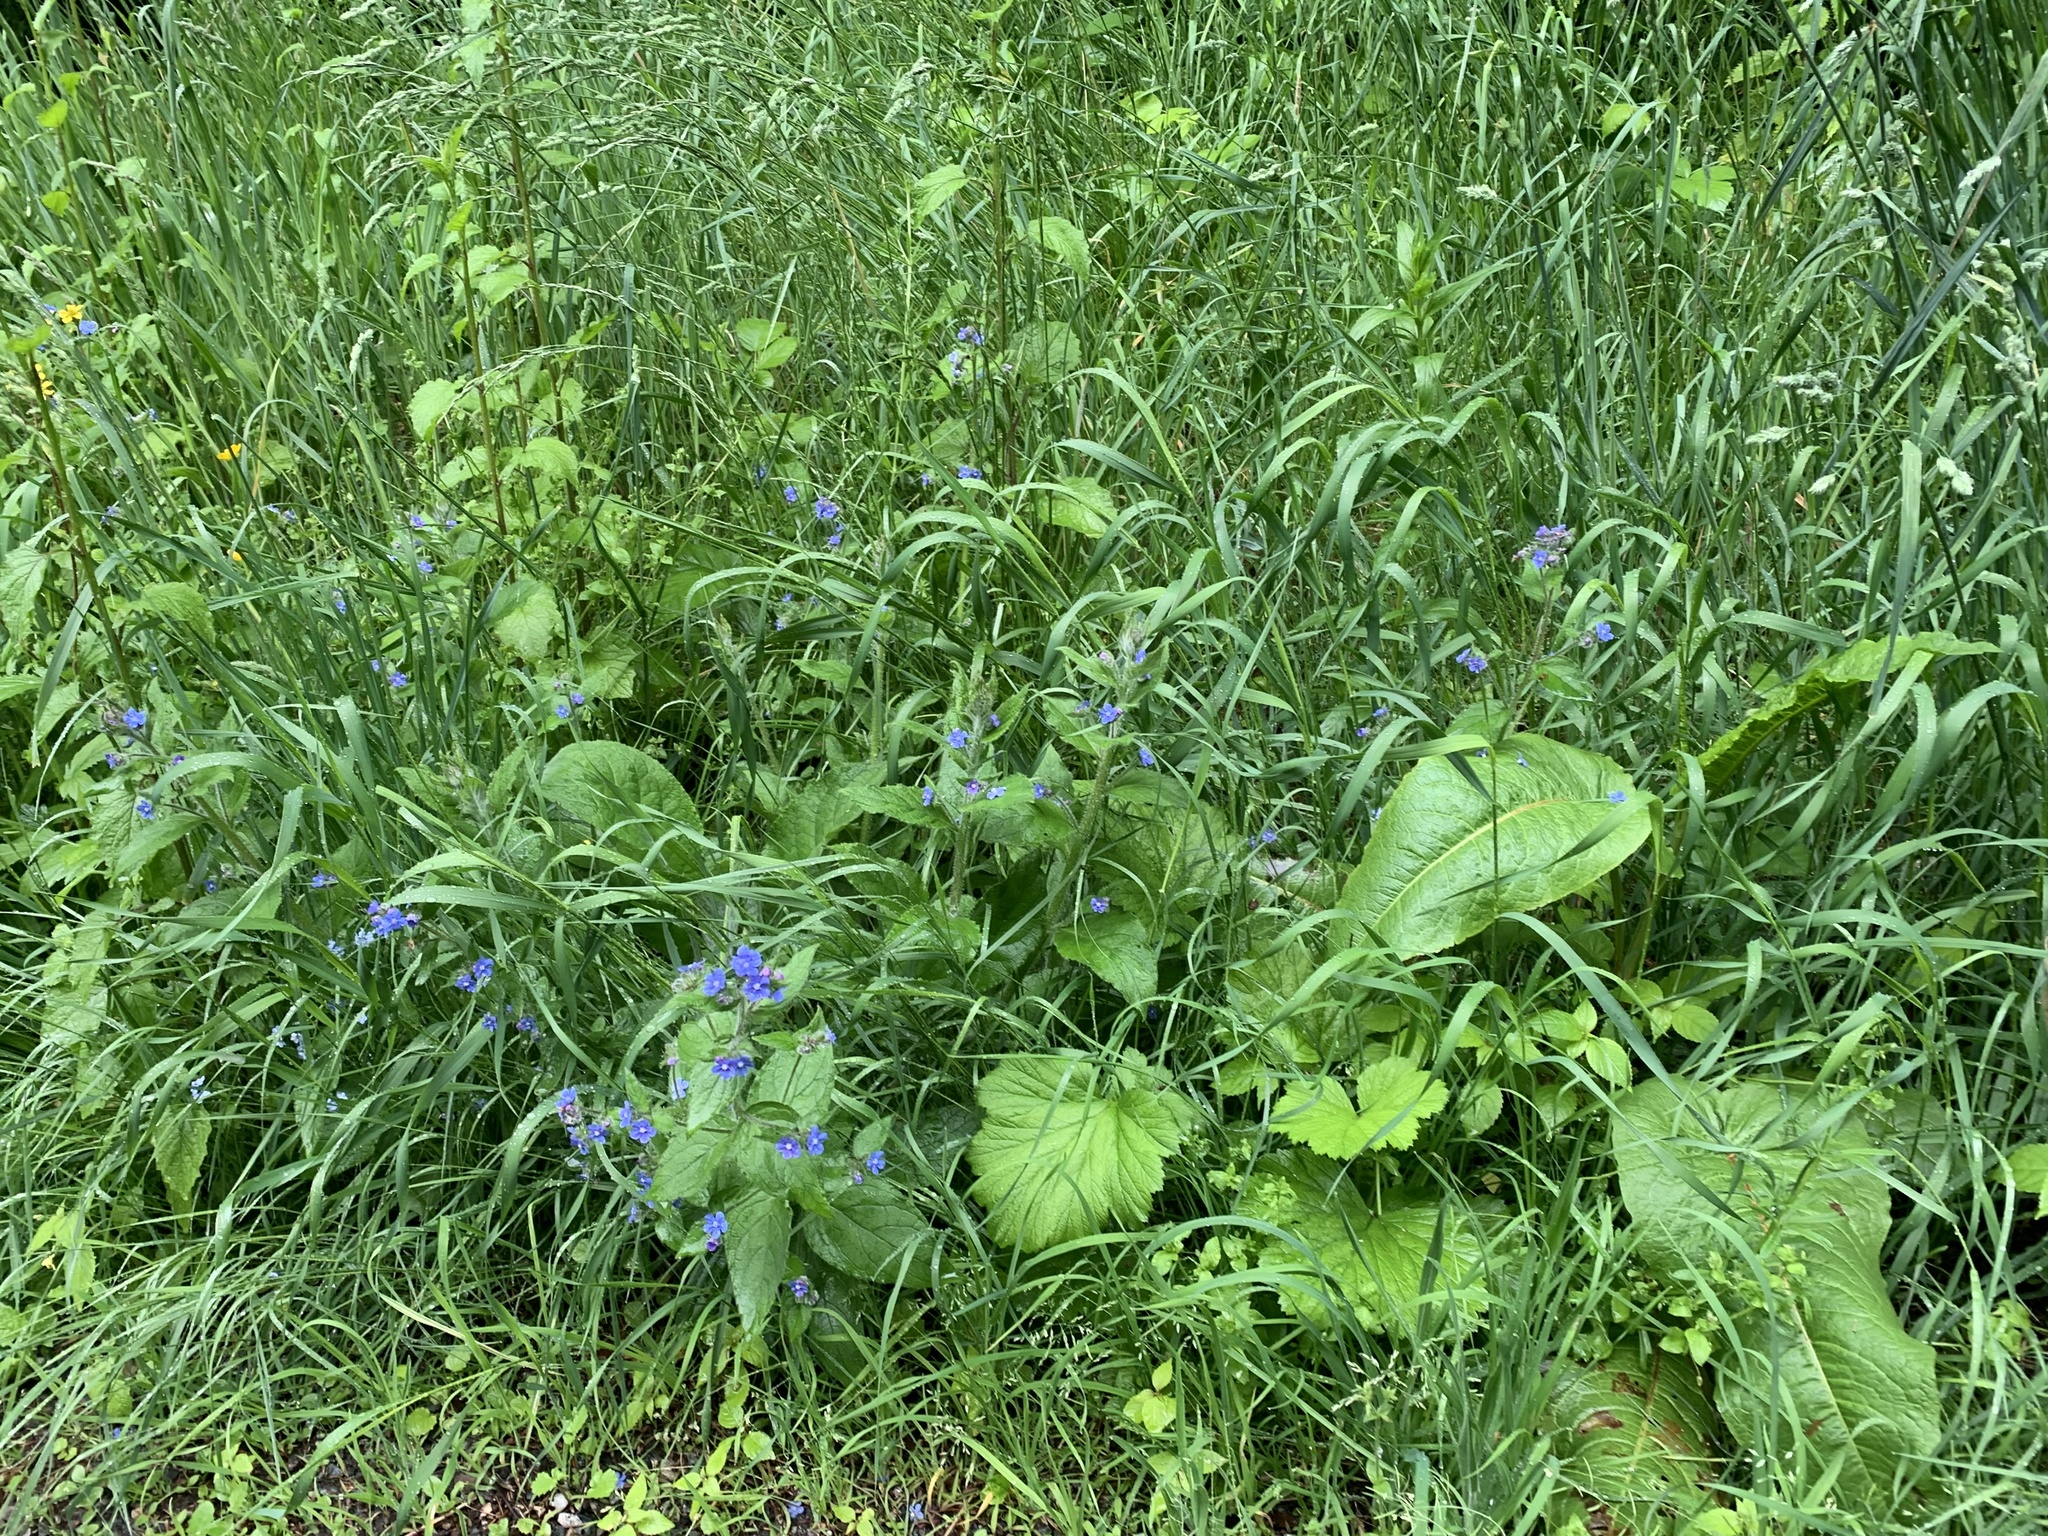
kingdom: Plantae
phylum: Tracheophyta
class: Magnoliopsida
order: Boraginales
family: Boraginaceae
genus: Pentaglottis
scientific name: Pentaglottis sempervirens
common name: Green alkanet
